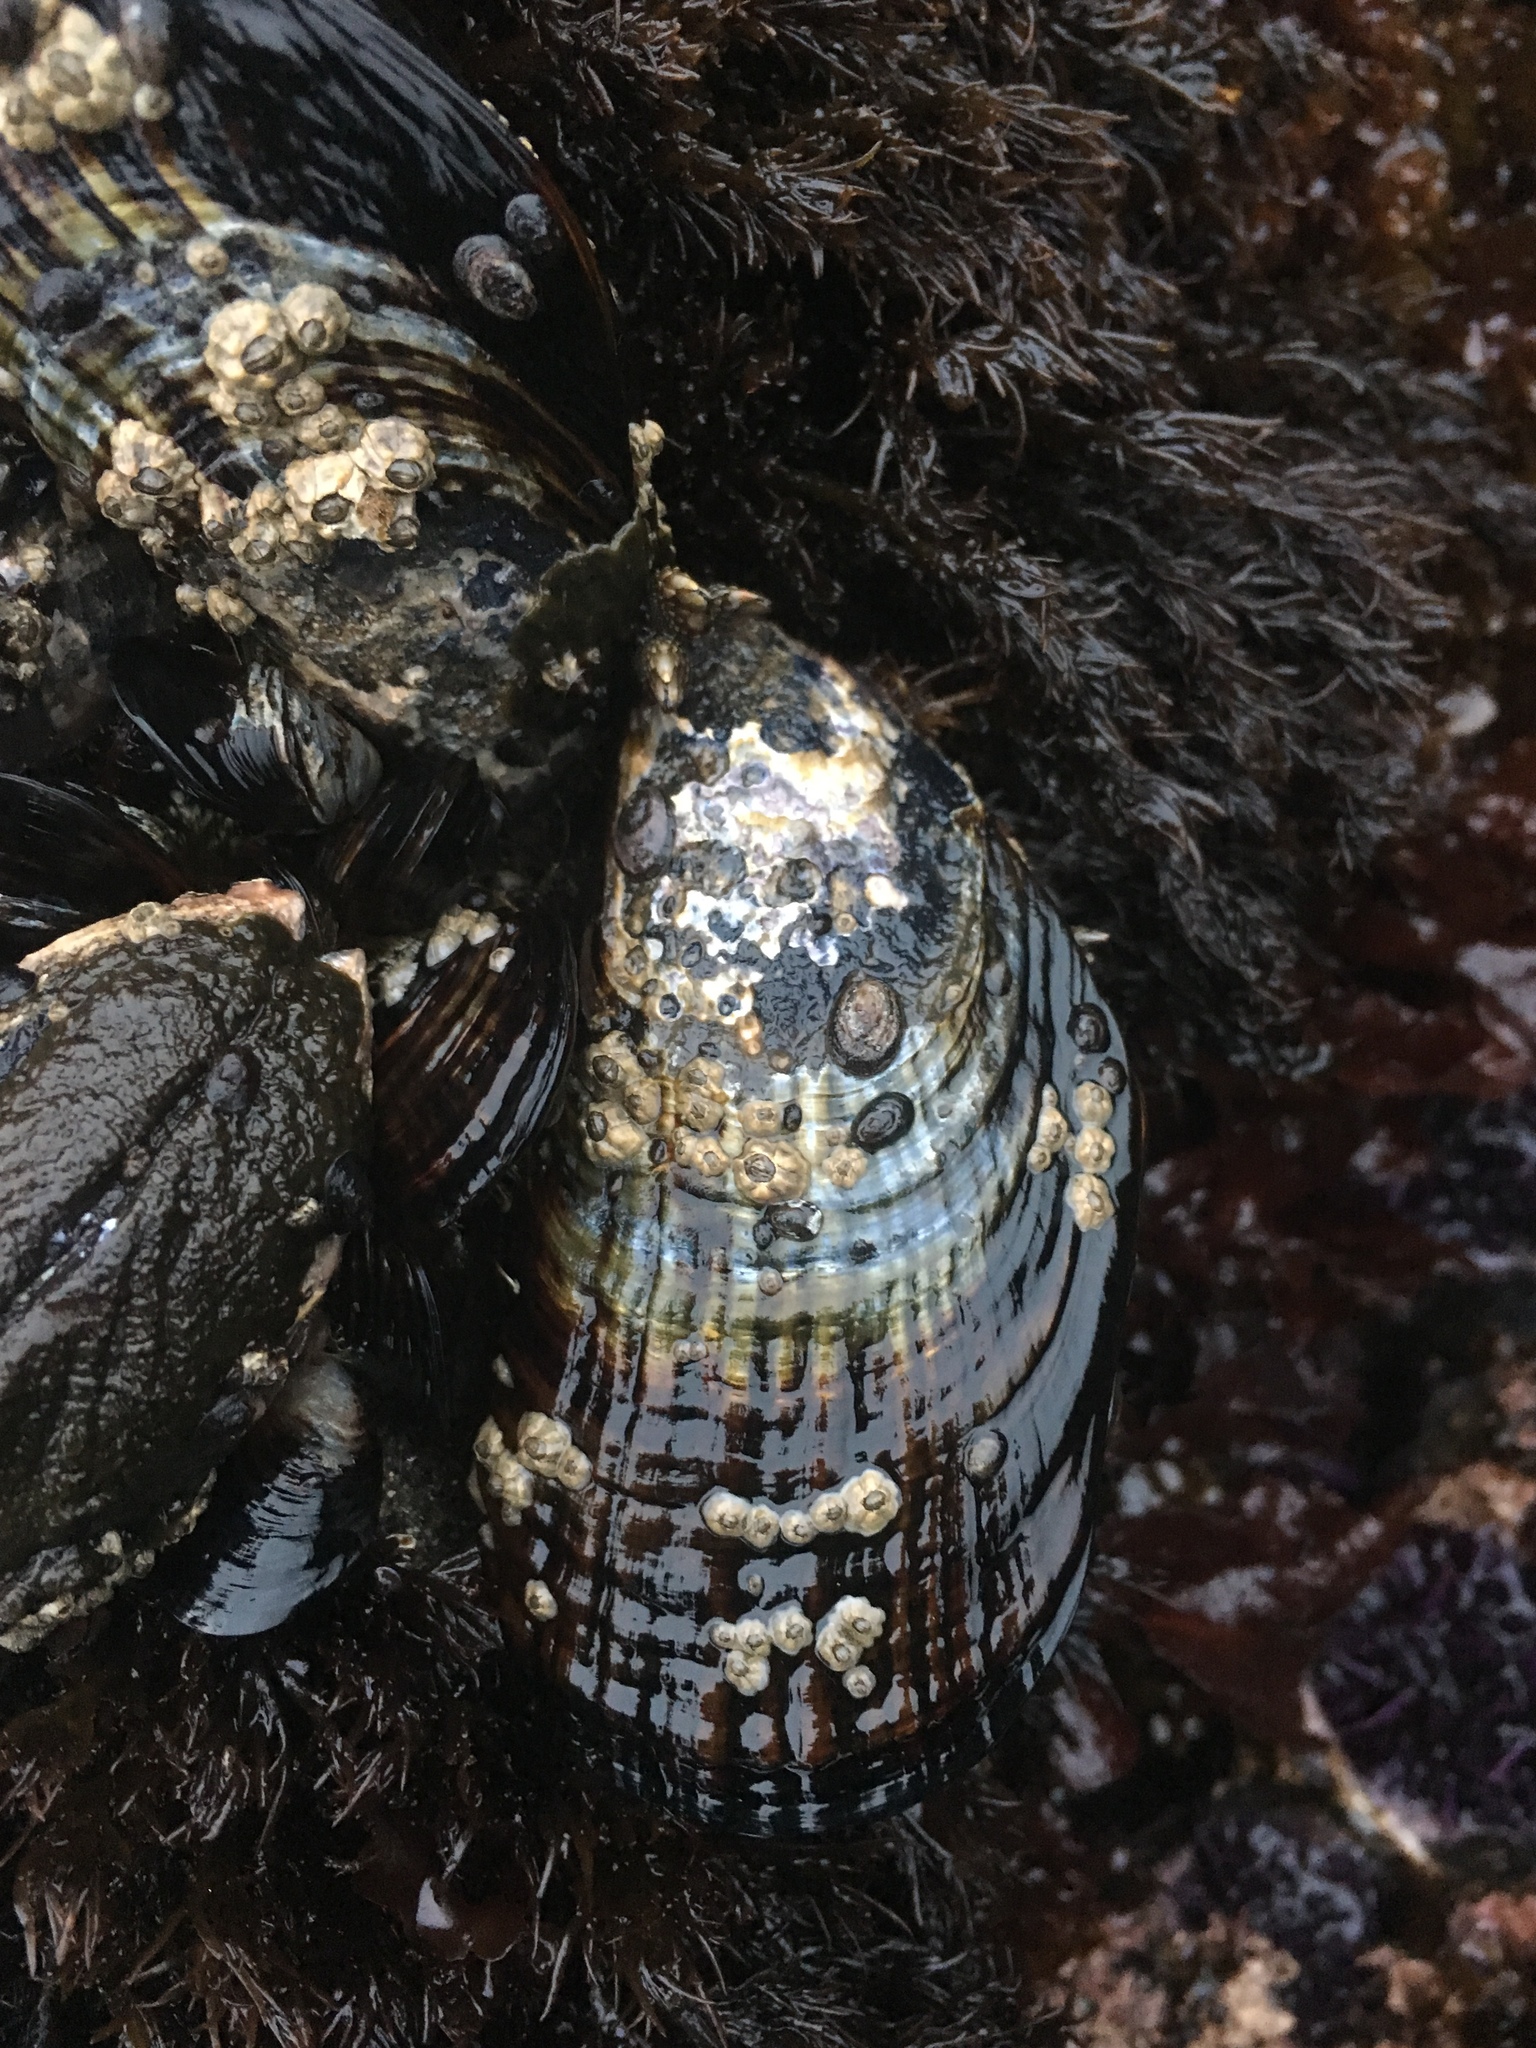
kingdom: Animalia
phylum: Mollusca
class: Bivalvia
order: Mytilida
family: Mytilidae
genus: Mytilus
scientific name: Mytilus californianus
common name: California mussel
